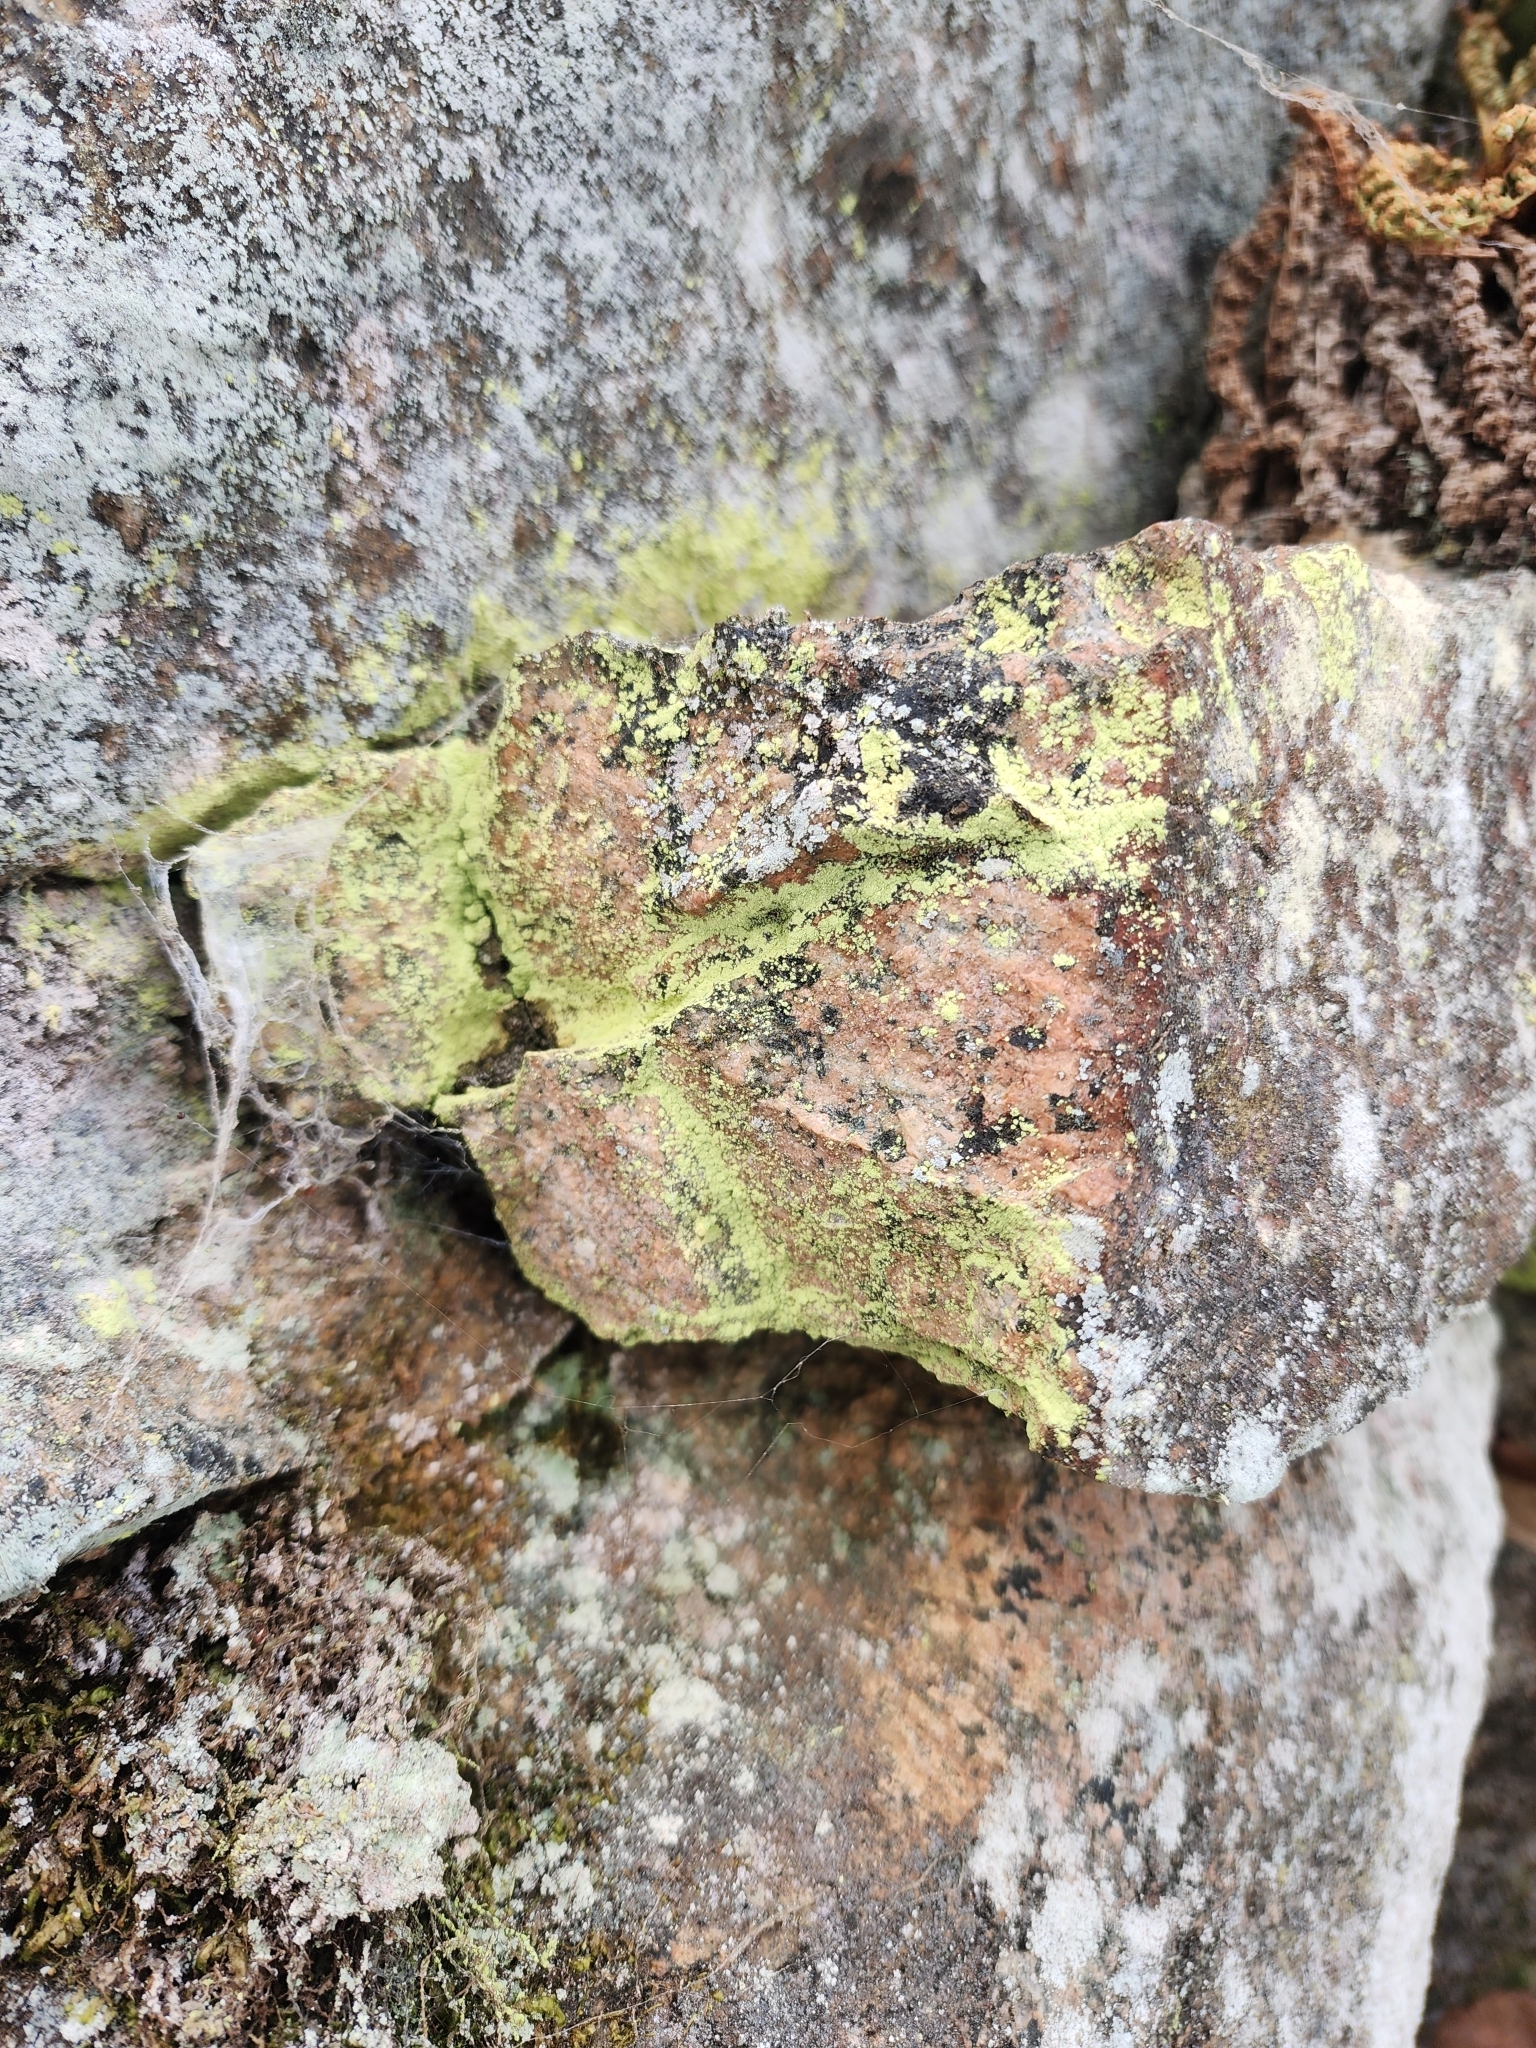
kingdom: Fungi
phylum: Ascomycota
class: Lecanoromycetes
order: Lecanorales
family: Psilolechiaceae
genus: Psilolechia
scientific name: Psilolechia lucida
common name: Sulphur dust lichen
